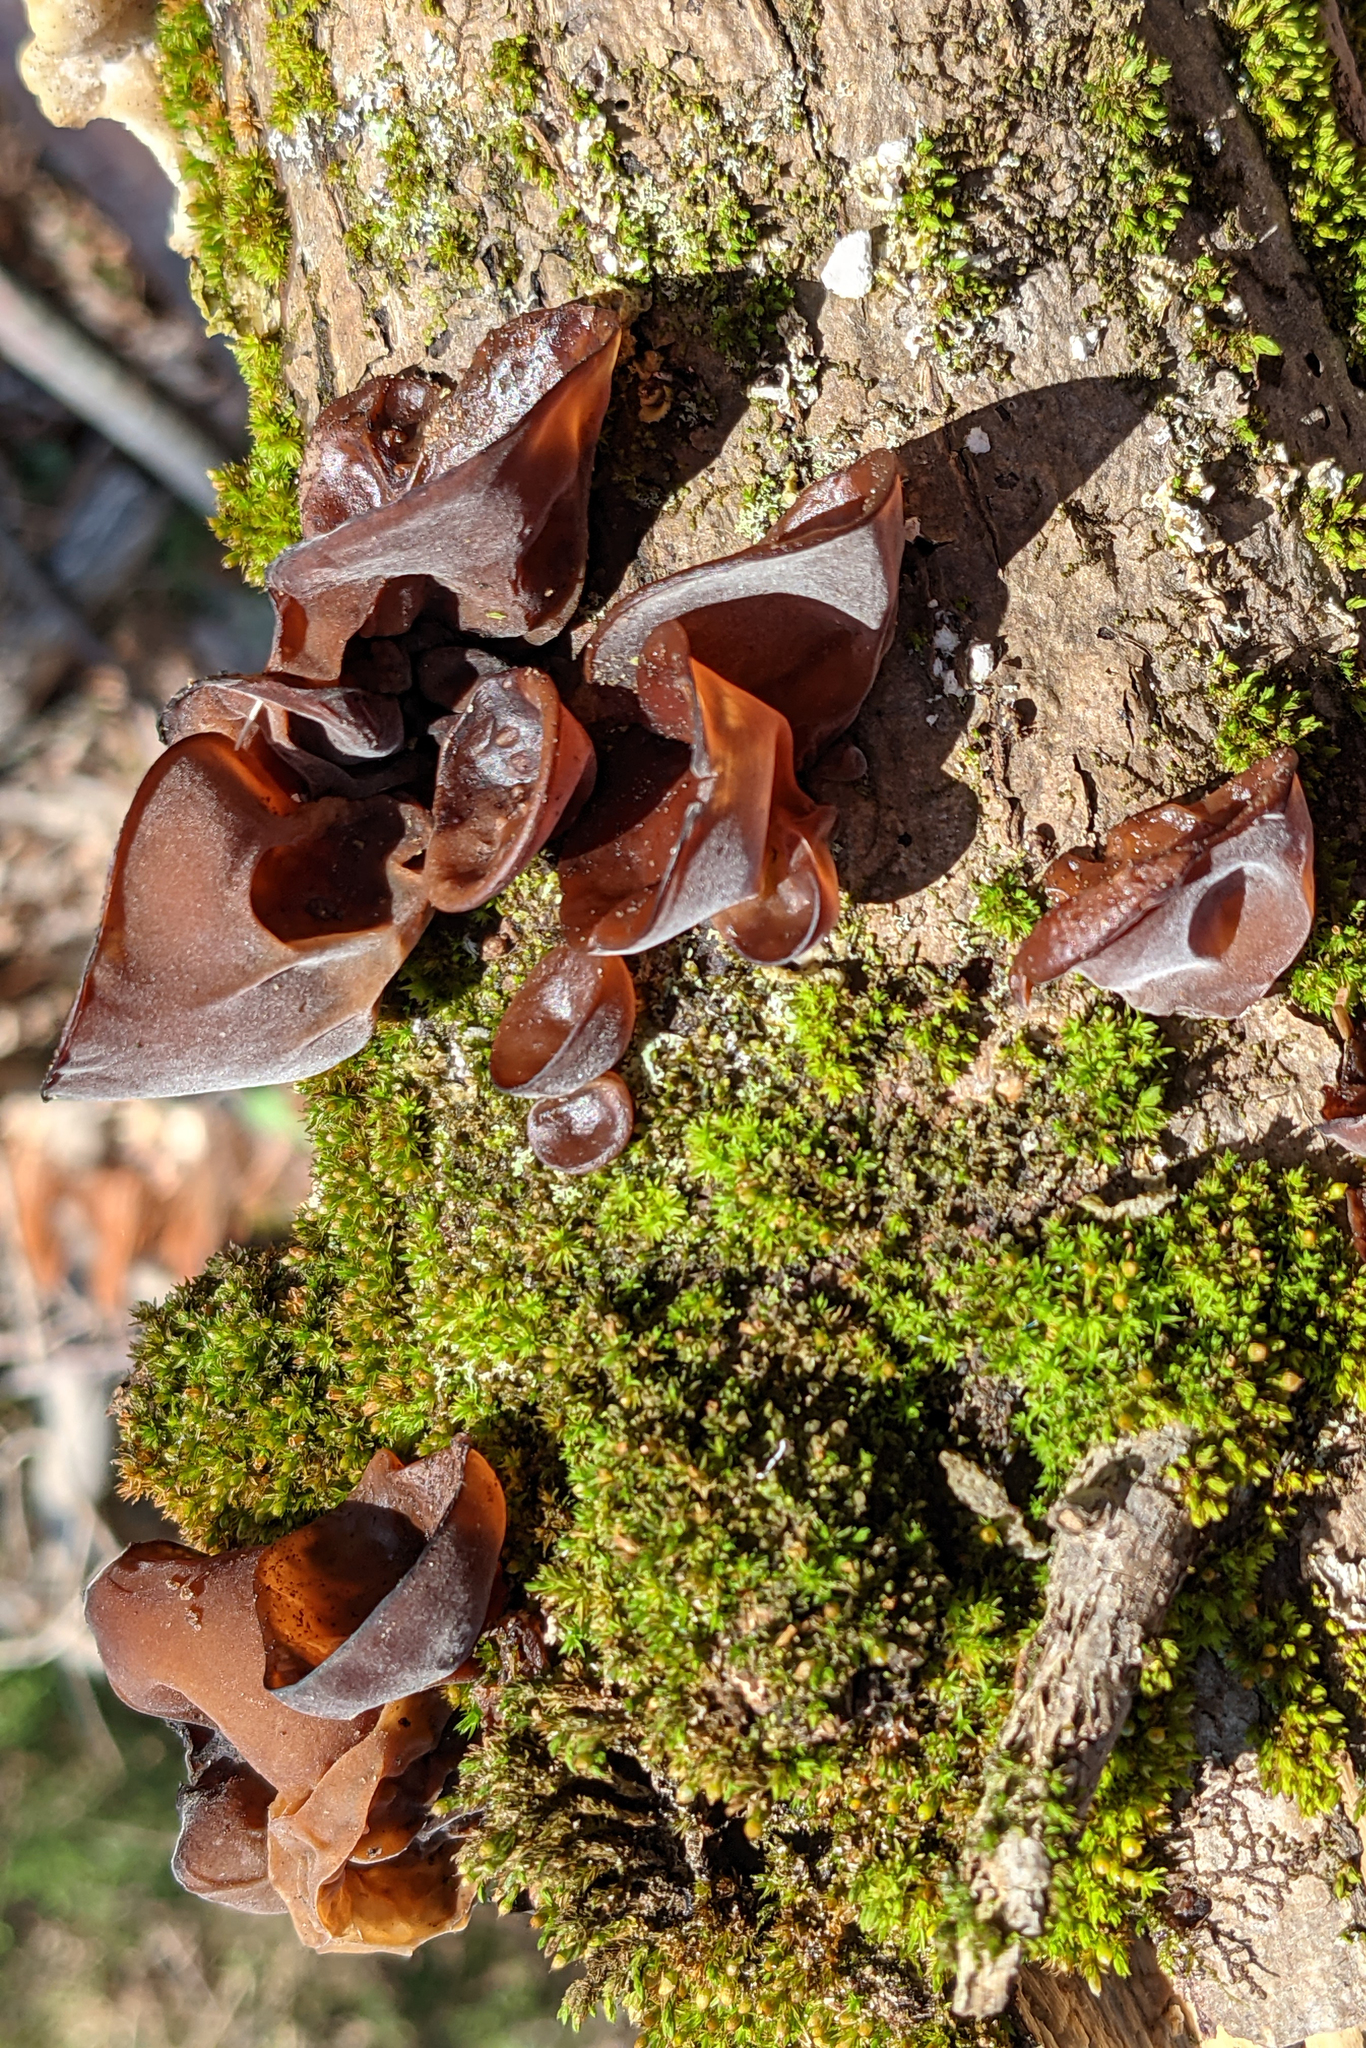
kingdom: Fungi
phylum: Basidiomycota
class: Agaricomycetes
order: Auriculariales
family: Auriculariaceae
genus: Auricularia
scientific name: Auricularia americana
